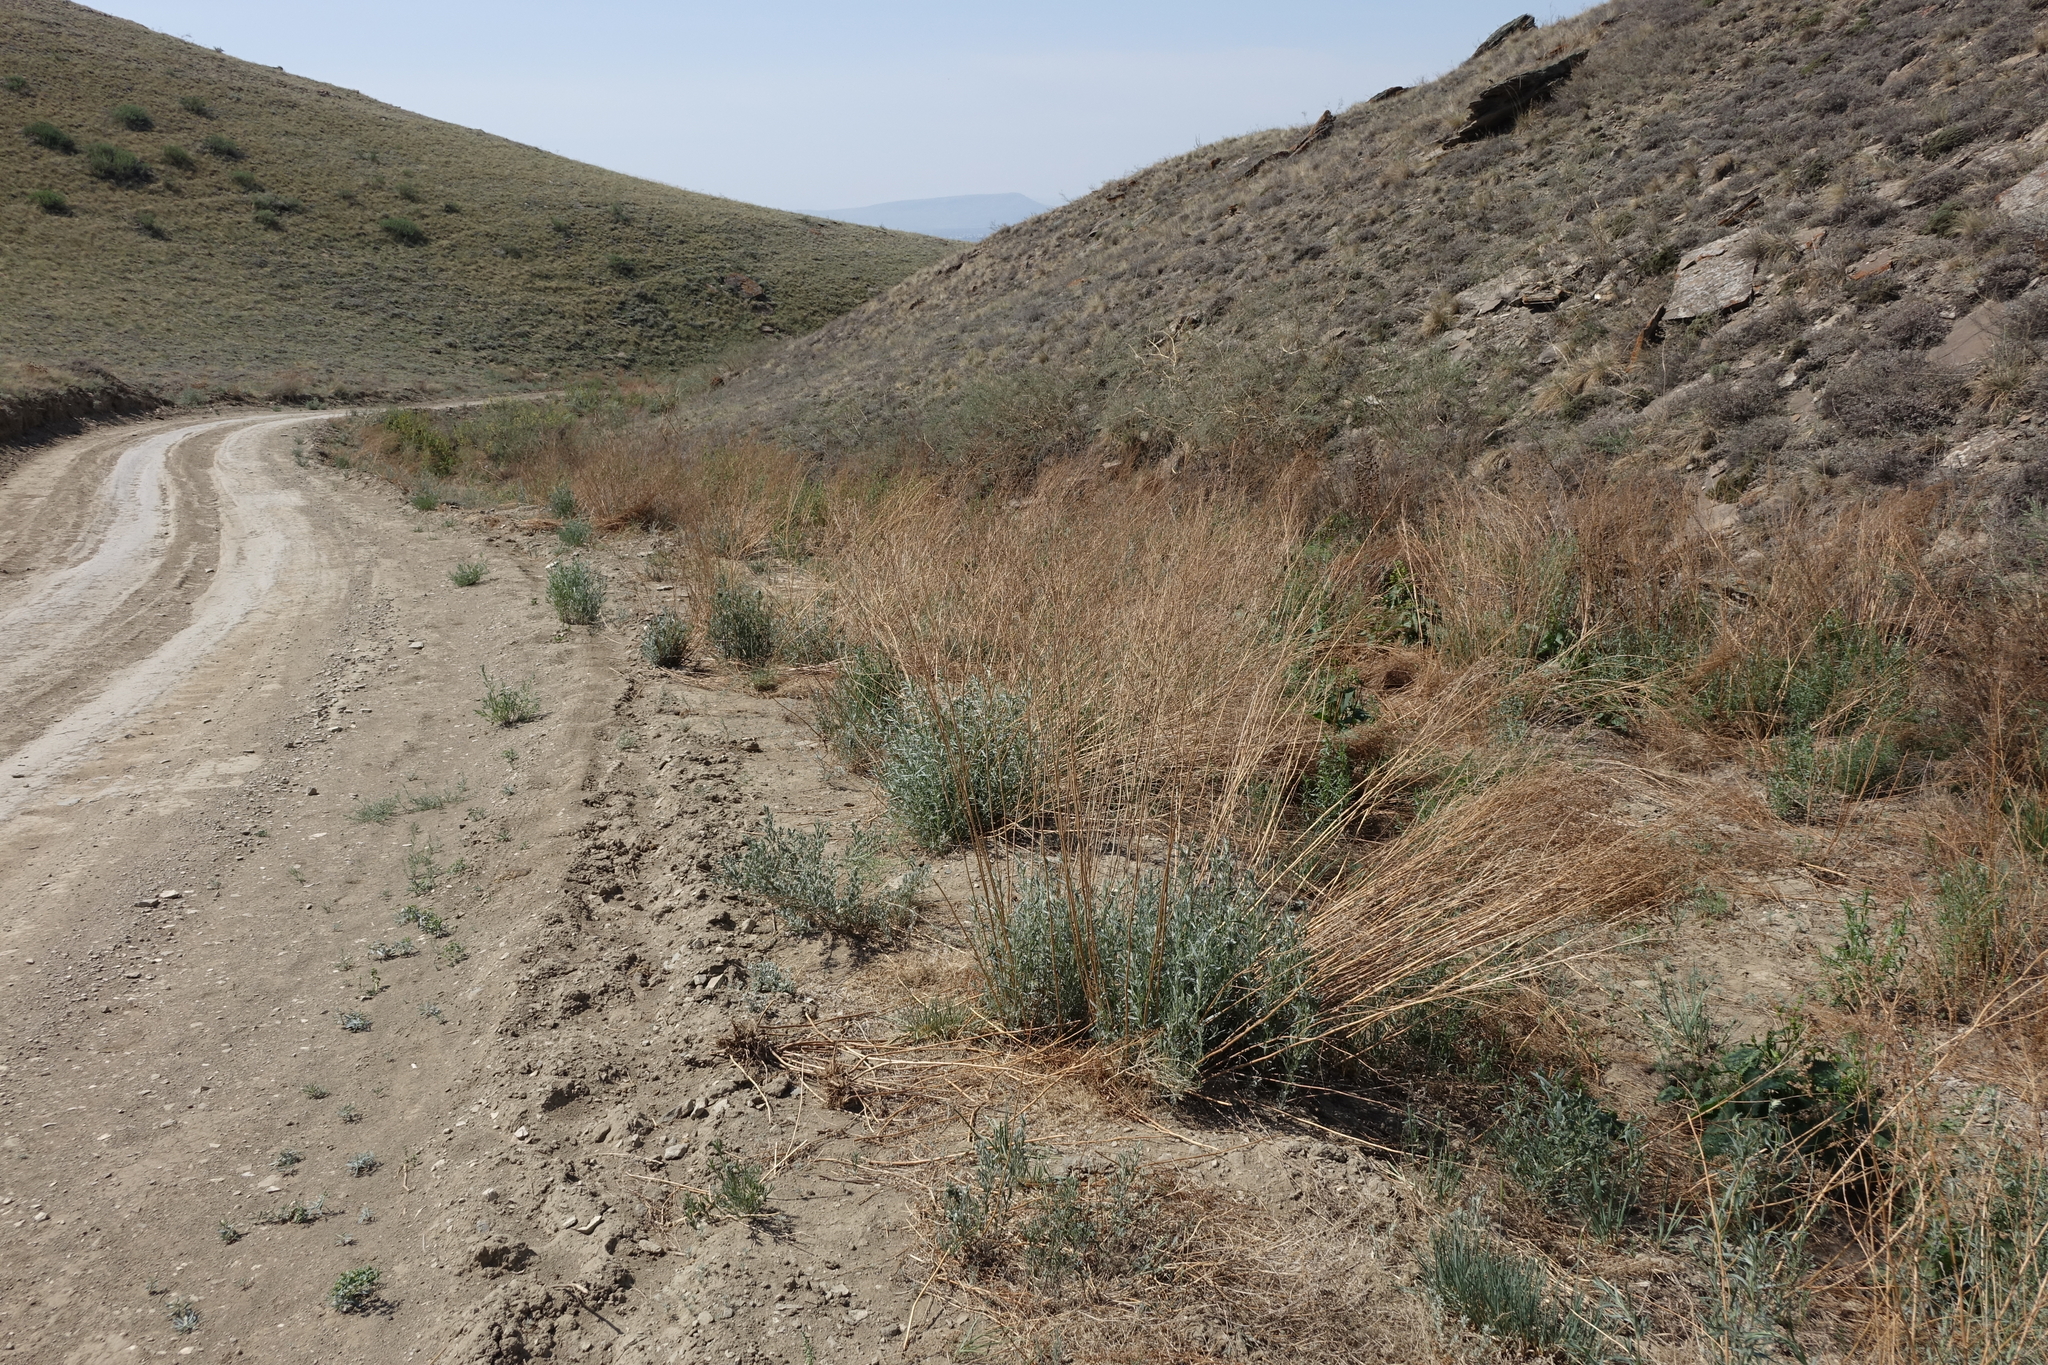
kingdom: Plantae
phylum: Tracheophyta
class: Magnoliopsida
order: Asterales
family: Asteraceae
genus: Artemisia
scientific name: Artemisia glauca
